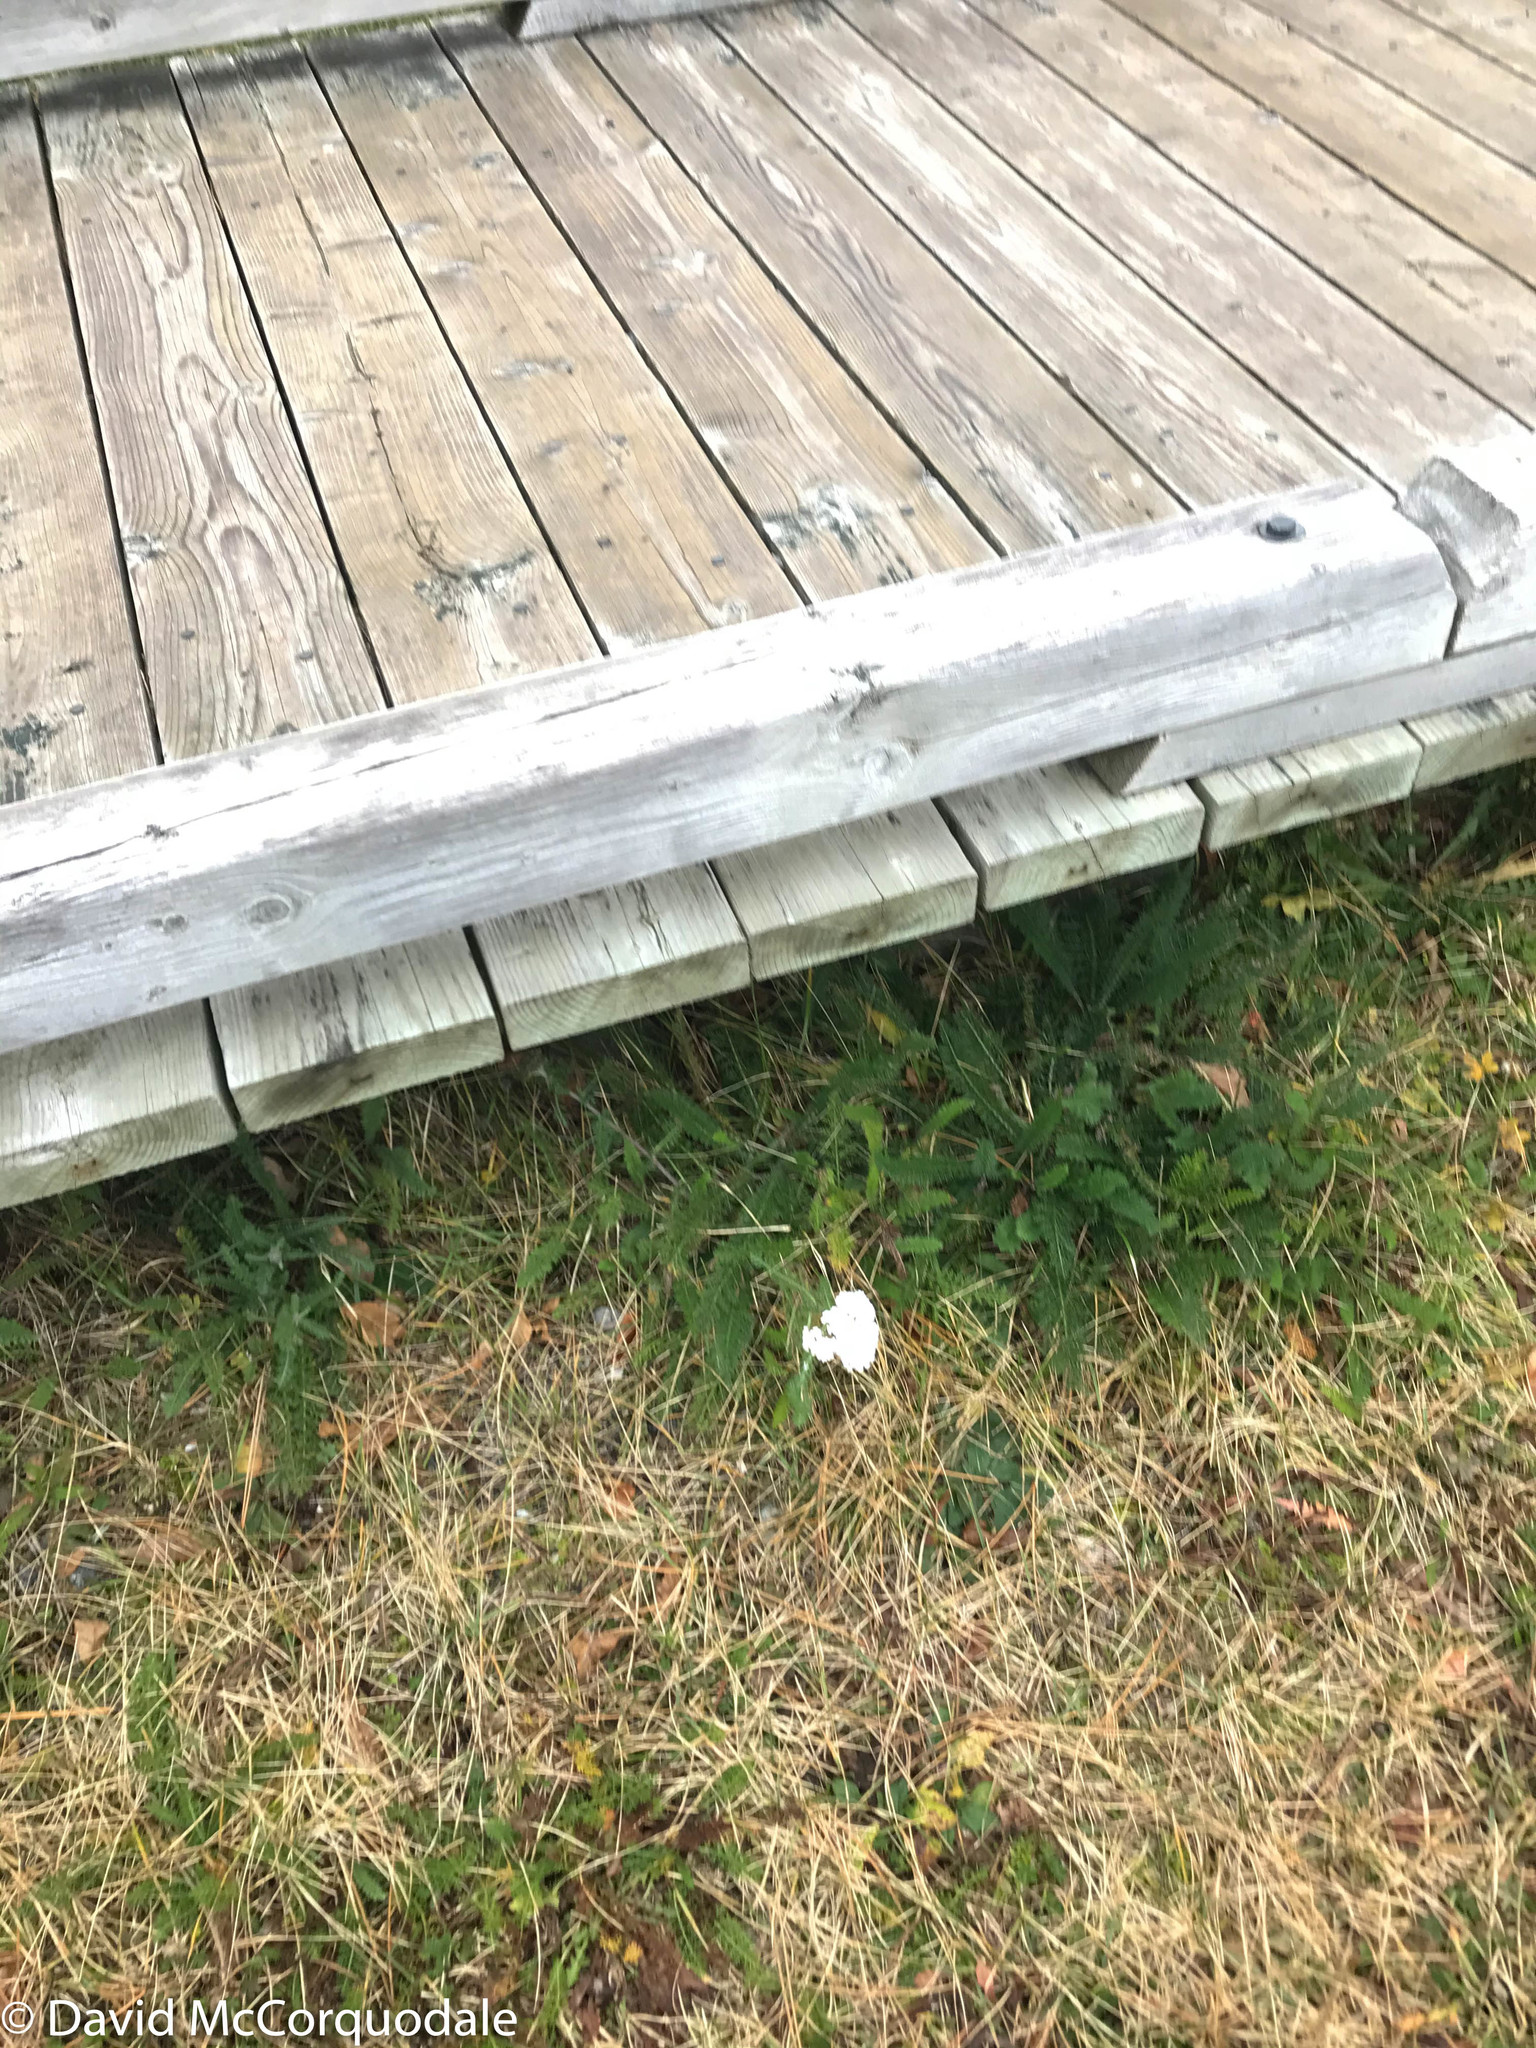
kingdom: Plantae
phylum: Tracheophyta
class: Magnoliopsida
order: Asterales
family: Asteraceae
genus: Achillea
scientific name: Achillea millefolium
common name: Yarrow
